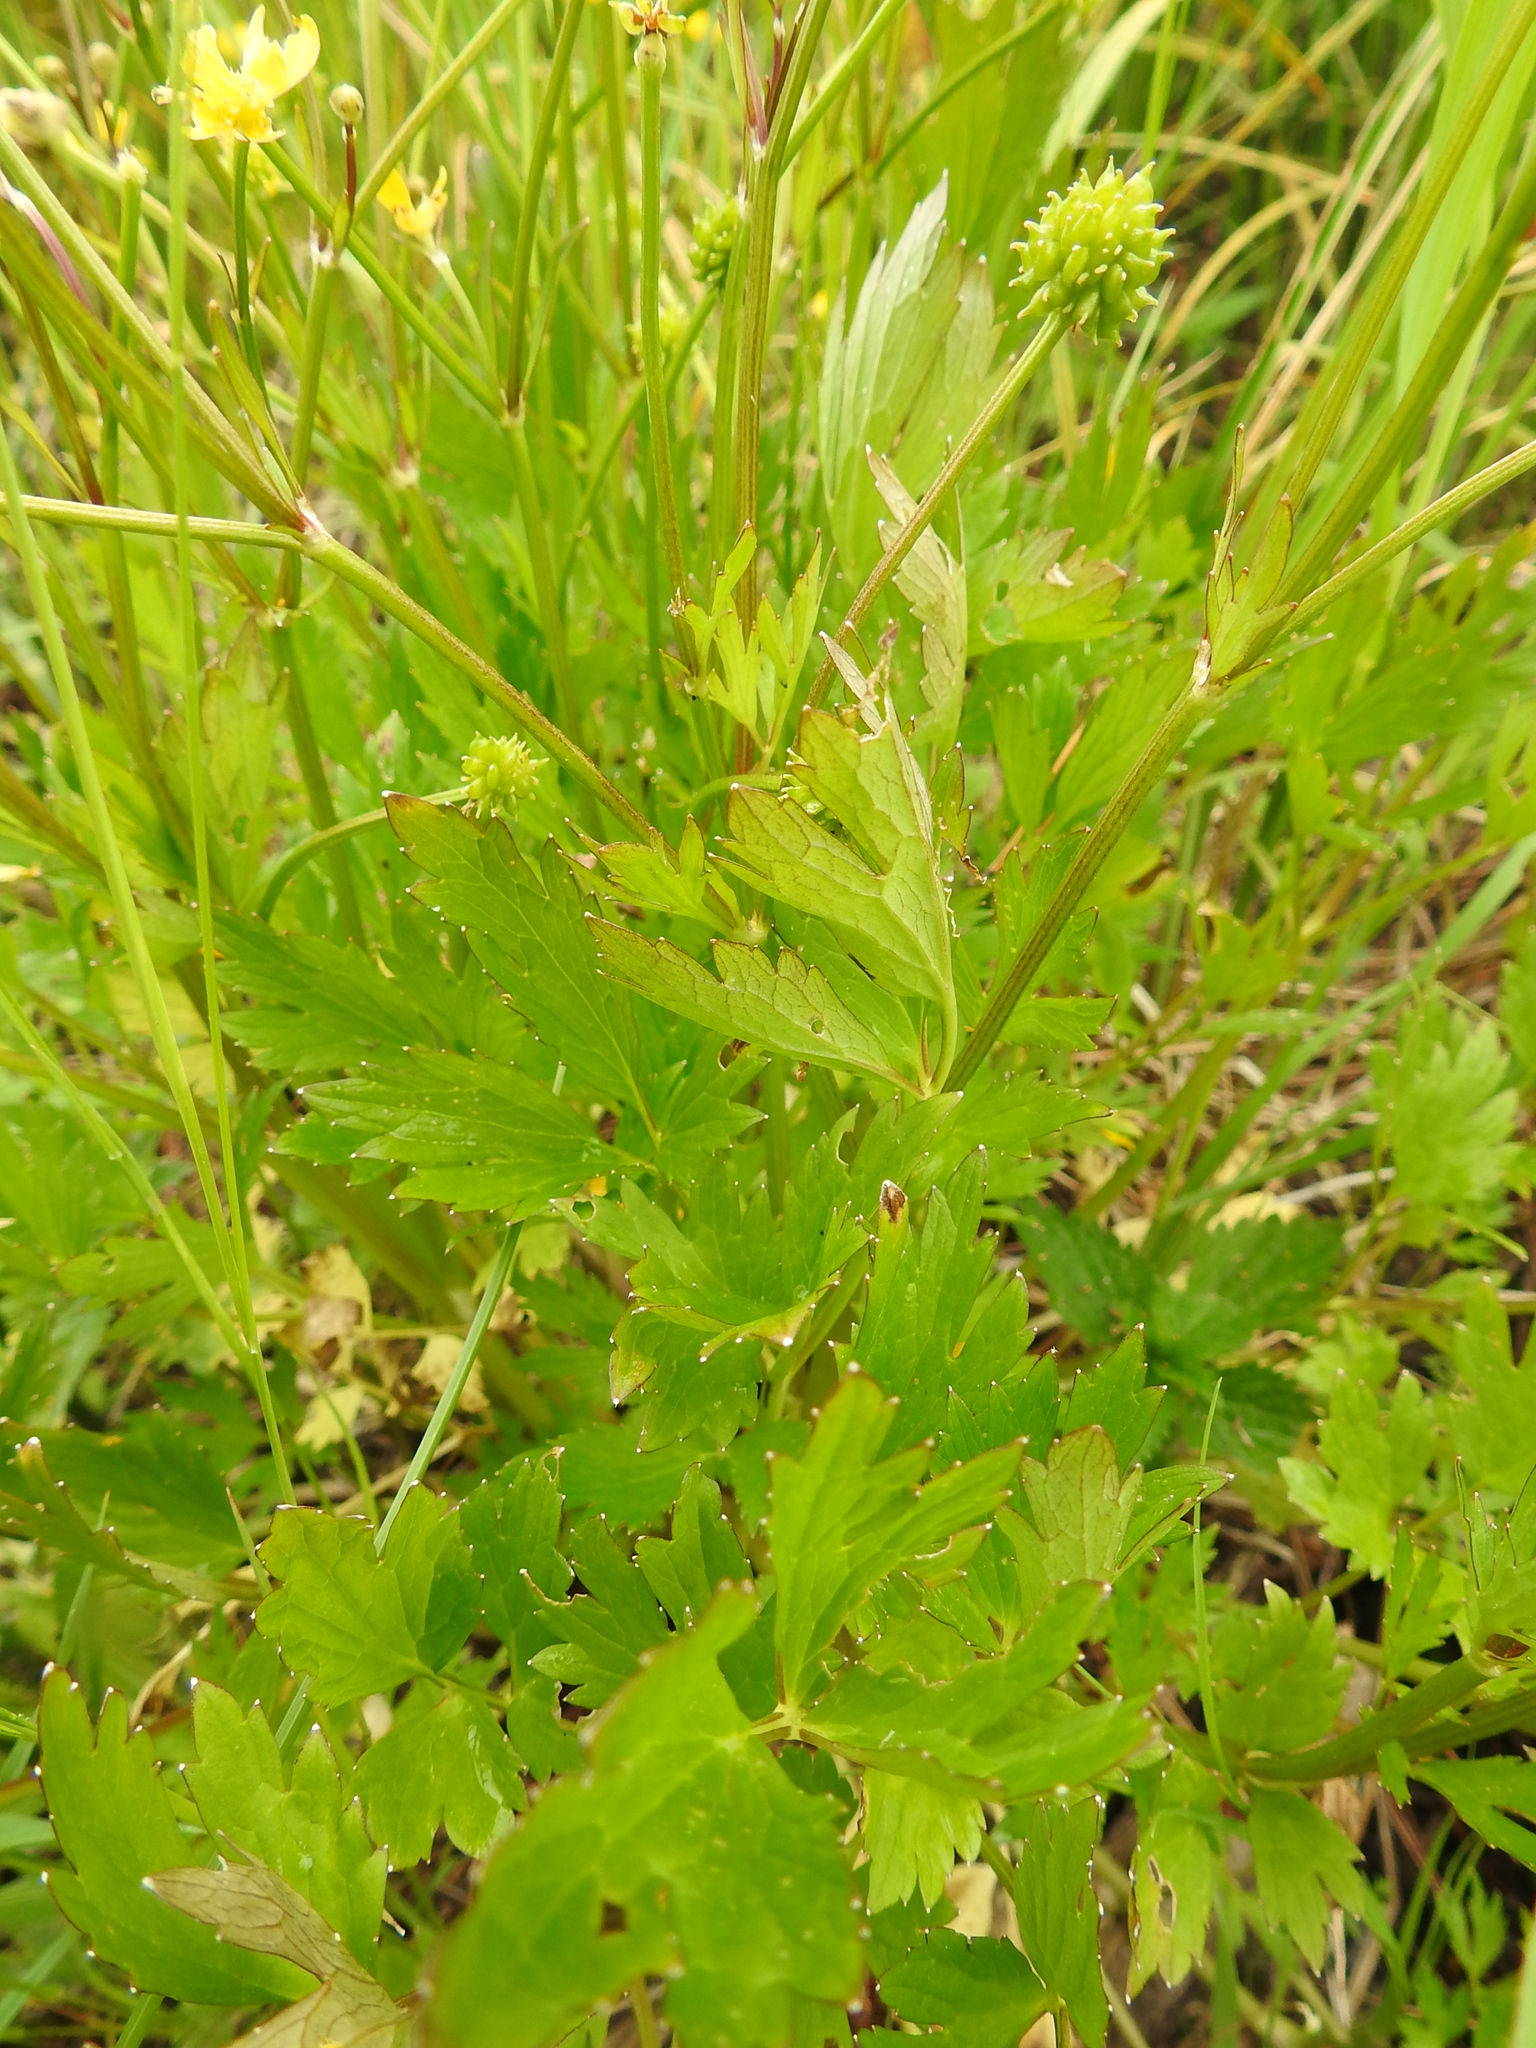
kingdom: Plantae
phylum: Tracheophyta
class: Magnoliopsida
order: Ranunculales
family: Ranunculaceae
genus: Ranunculus
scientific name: Ranunculus repens
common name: Creeping buttercup
